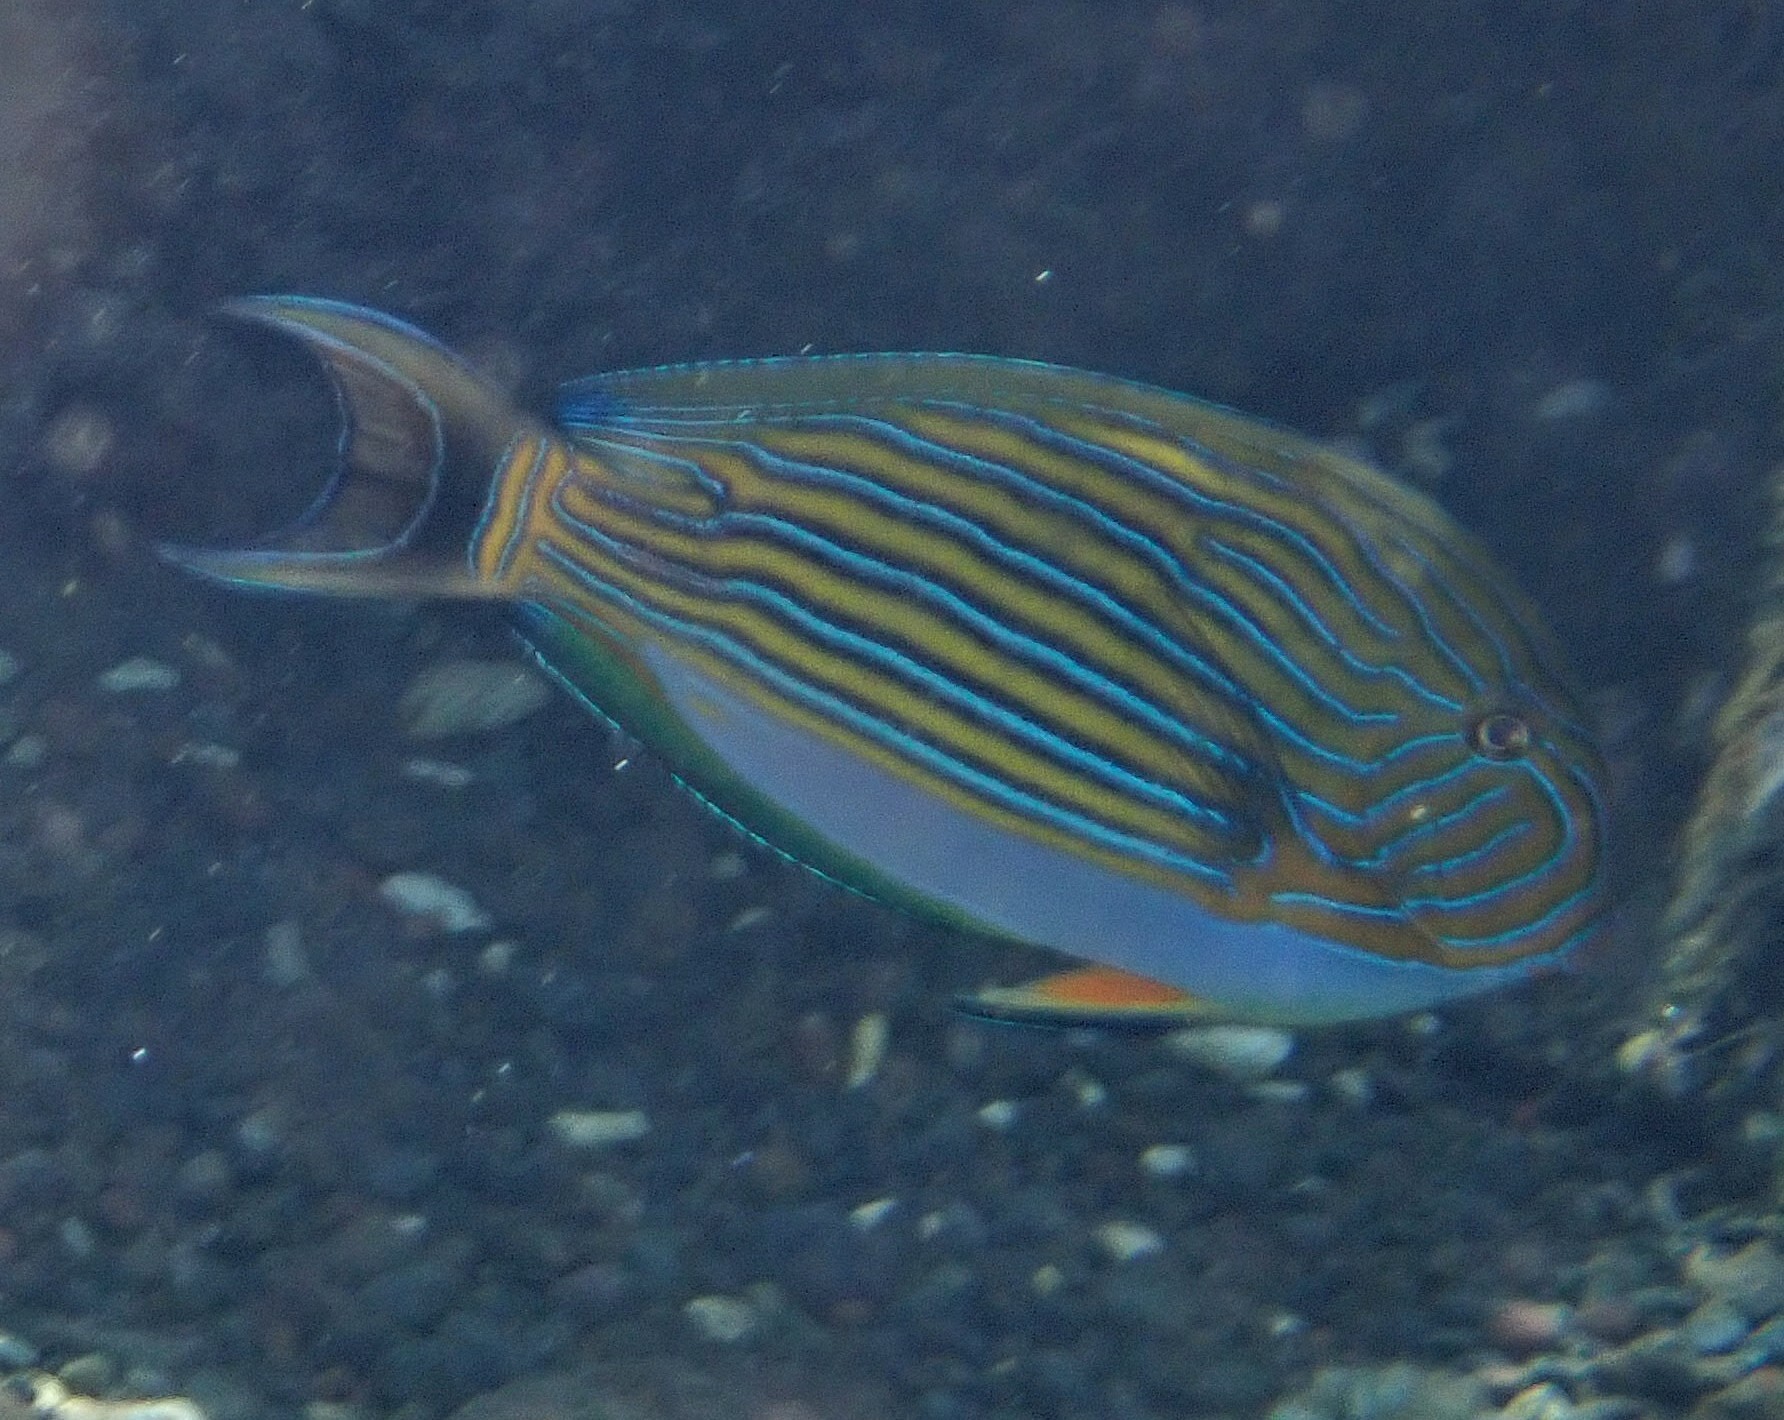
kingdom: Animalia
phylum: Chordata
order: Perciformes
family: Acanthuridae
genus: Acanthurus
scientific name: Acanthurus lineatus
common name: Striped surgeonfish
